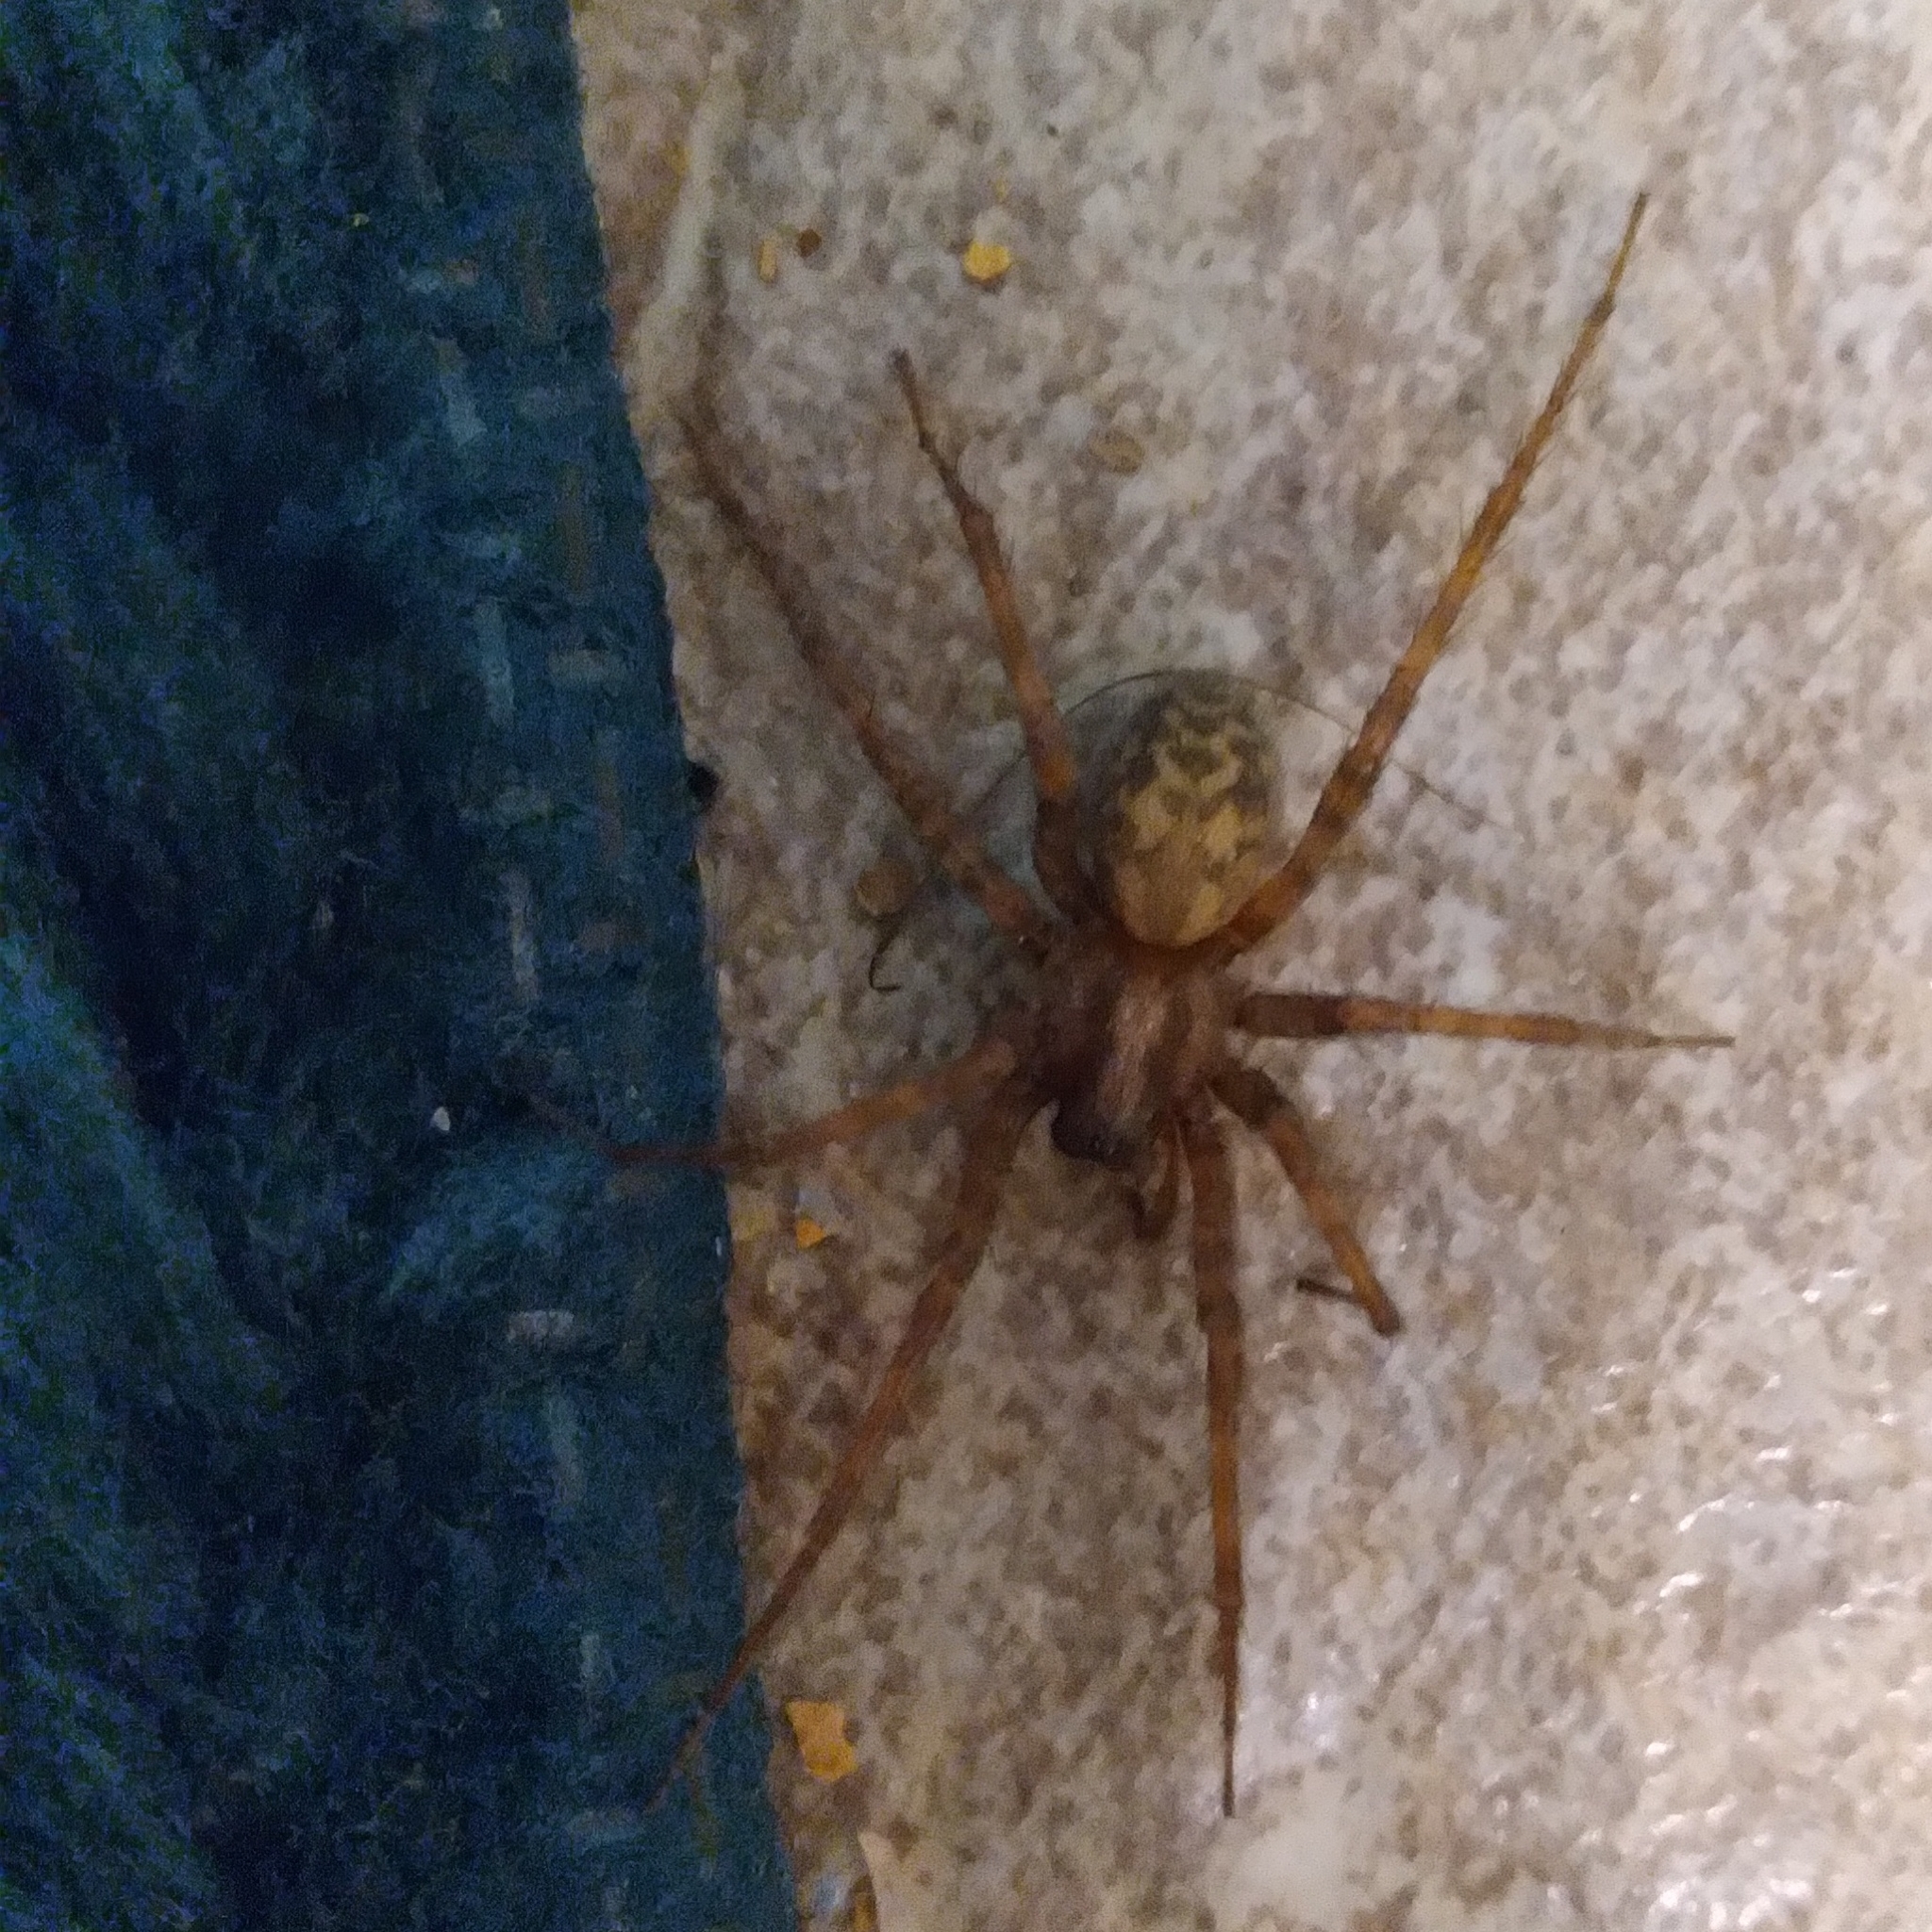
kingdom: Animalia
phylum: Arthropoda
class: Arachnida
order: Araneae
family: Agelenidae
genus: Tegenaria
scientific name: Tegenaria domestica
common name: Barn funnel weaver
